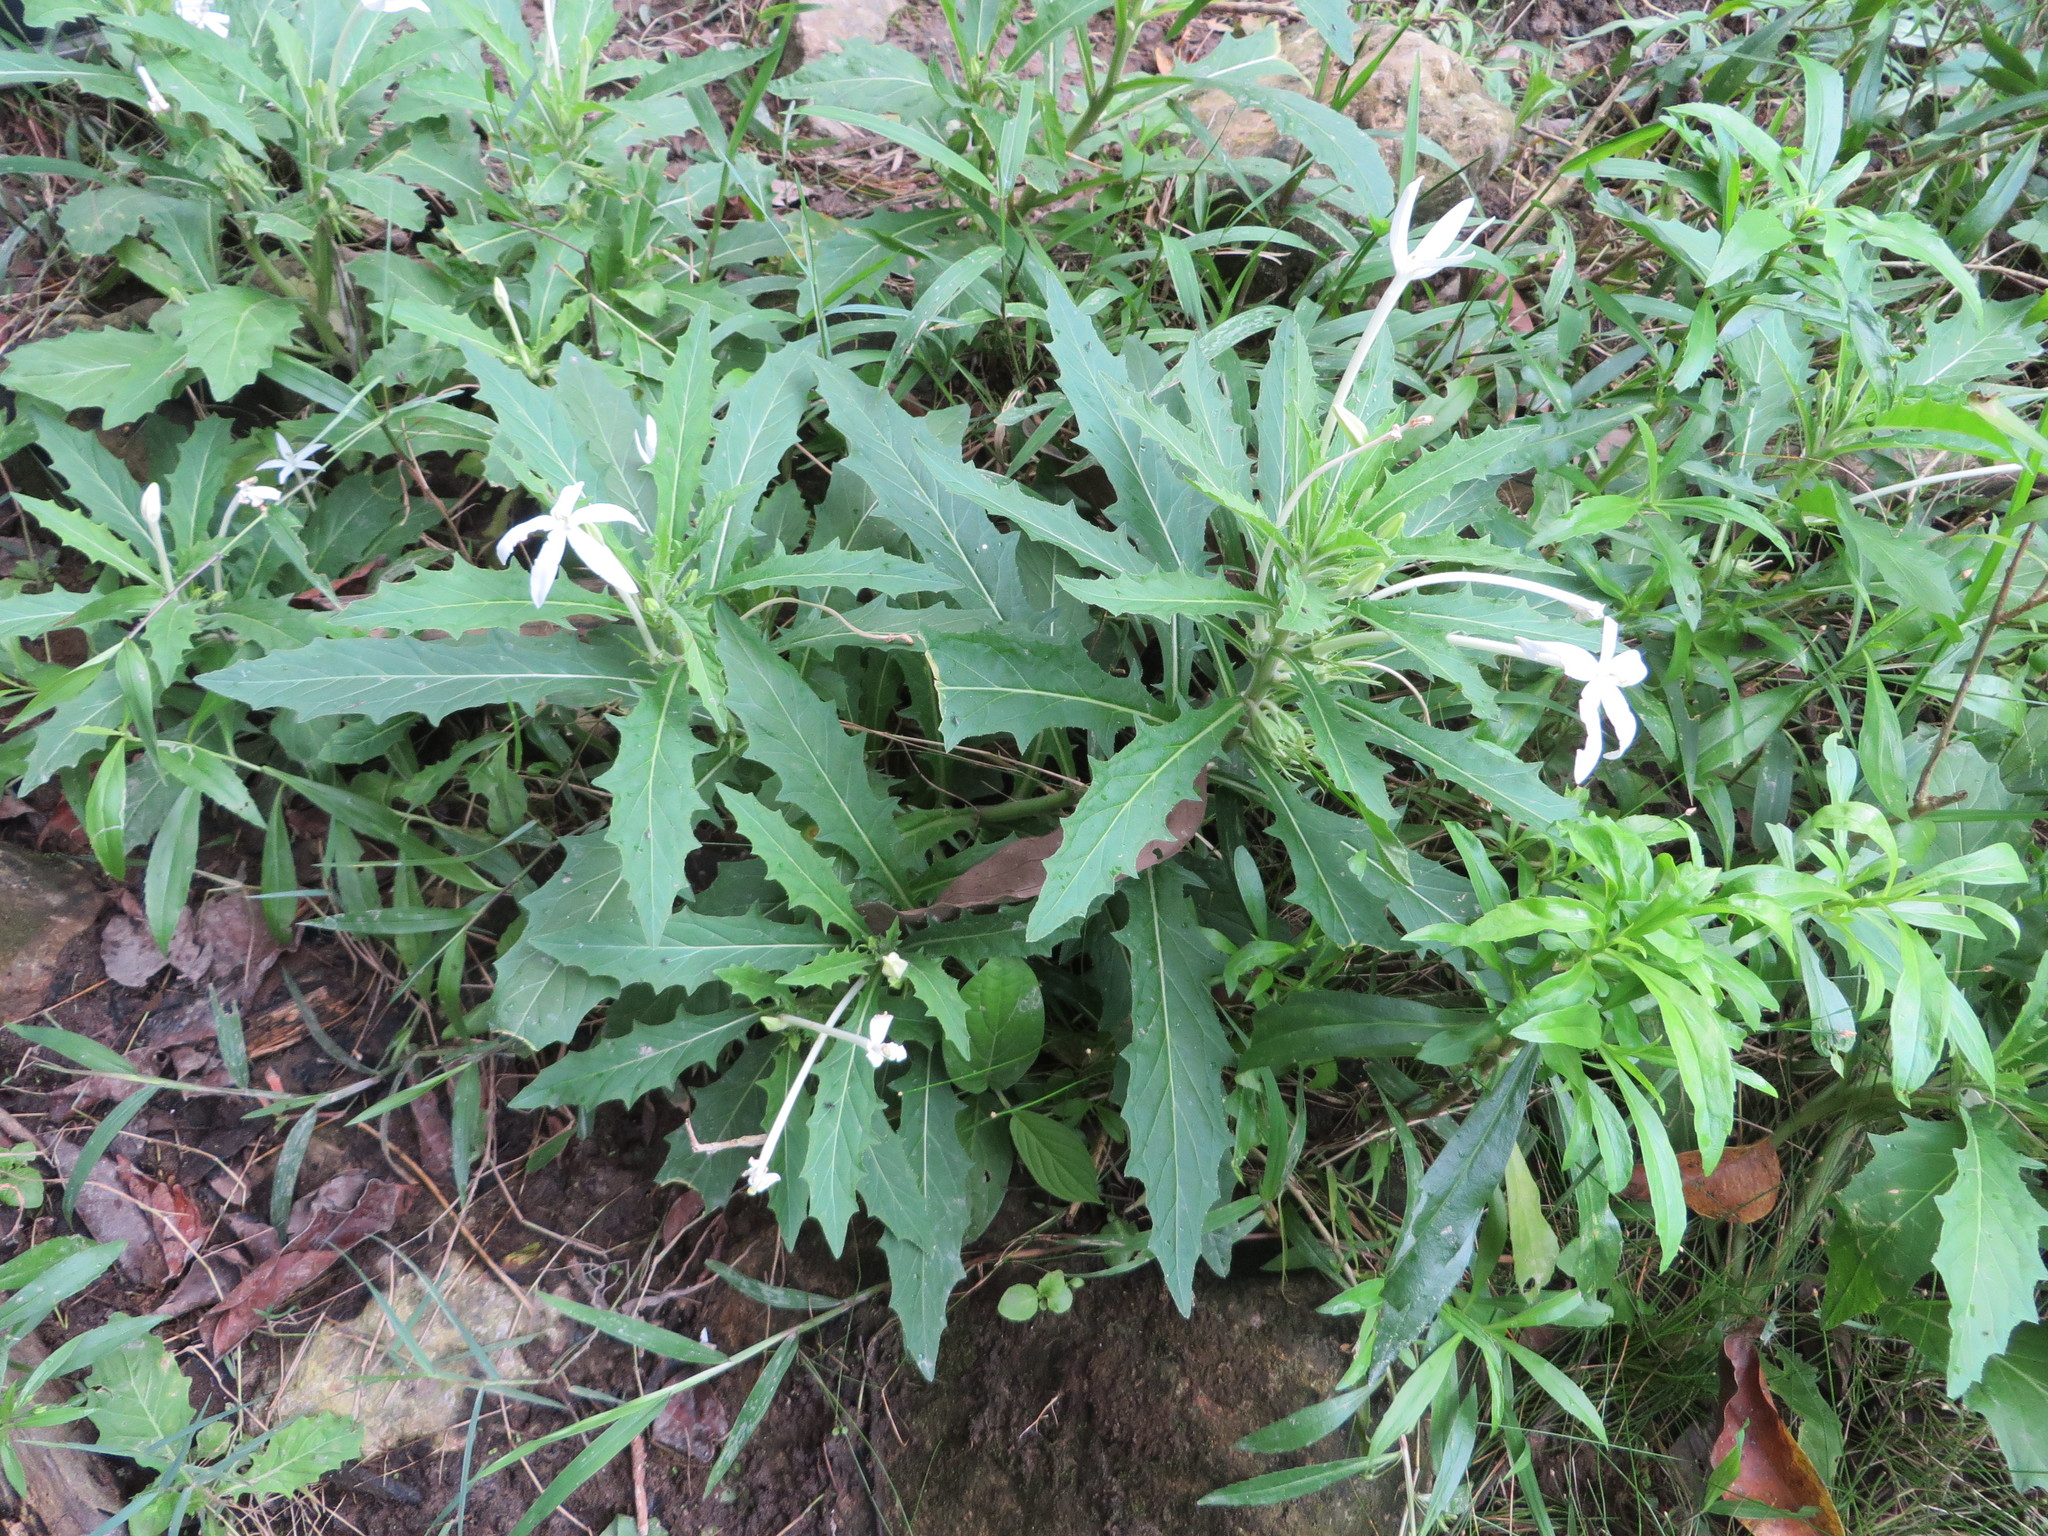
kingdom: Plantae
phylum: Tracheophyta
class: Magnoliopsida
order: Asterales
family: Campanulaceae
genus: Hippobroma
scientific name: Hippobroma longiflora
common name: Madamfate
